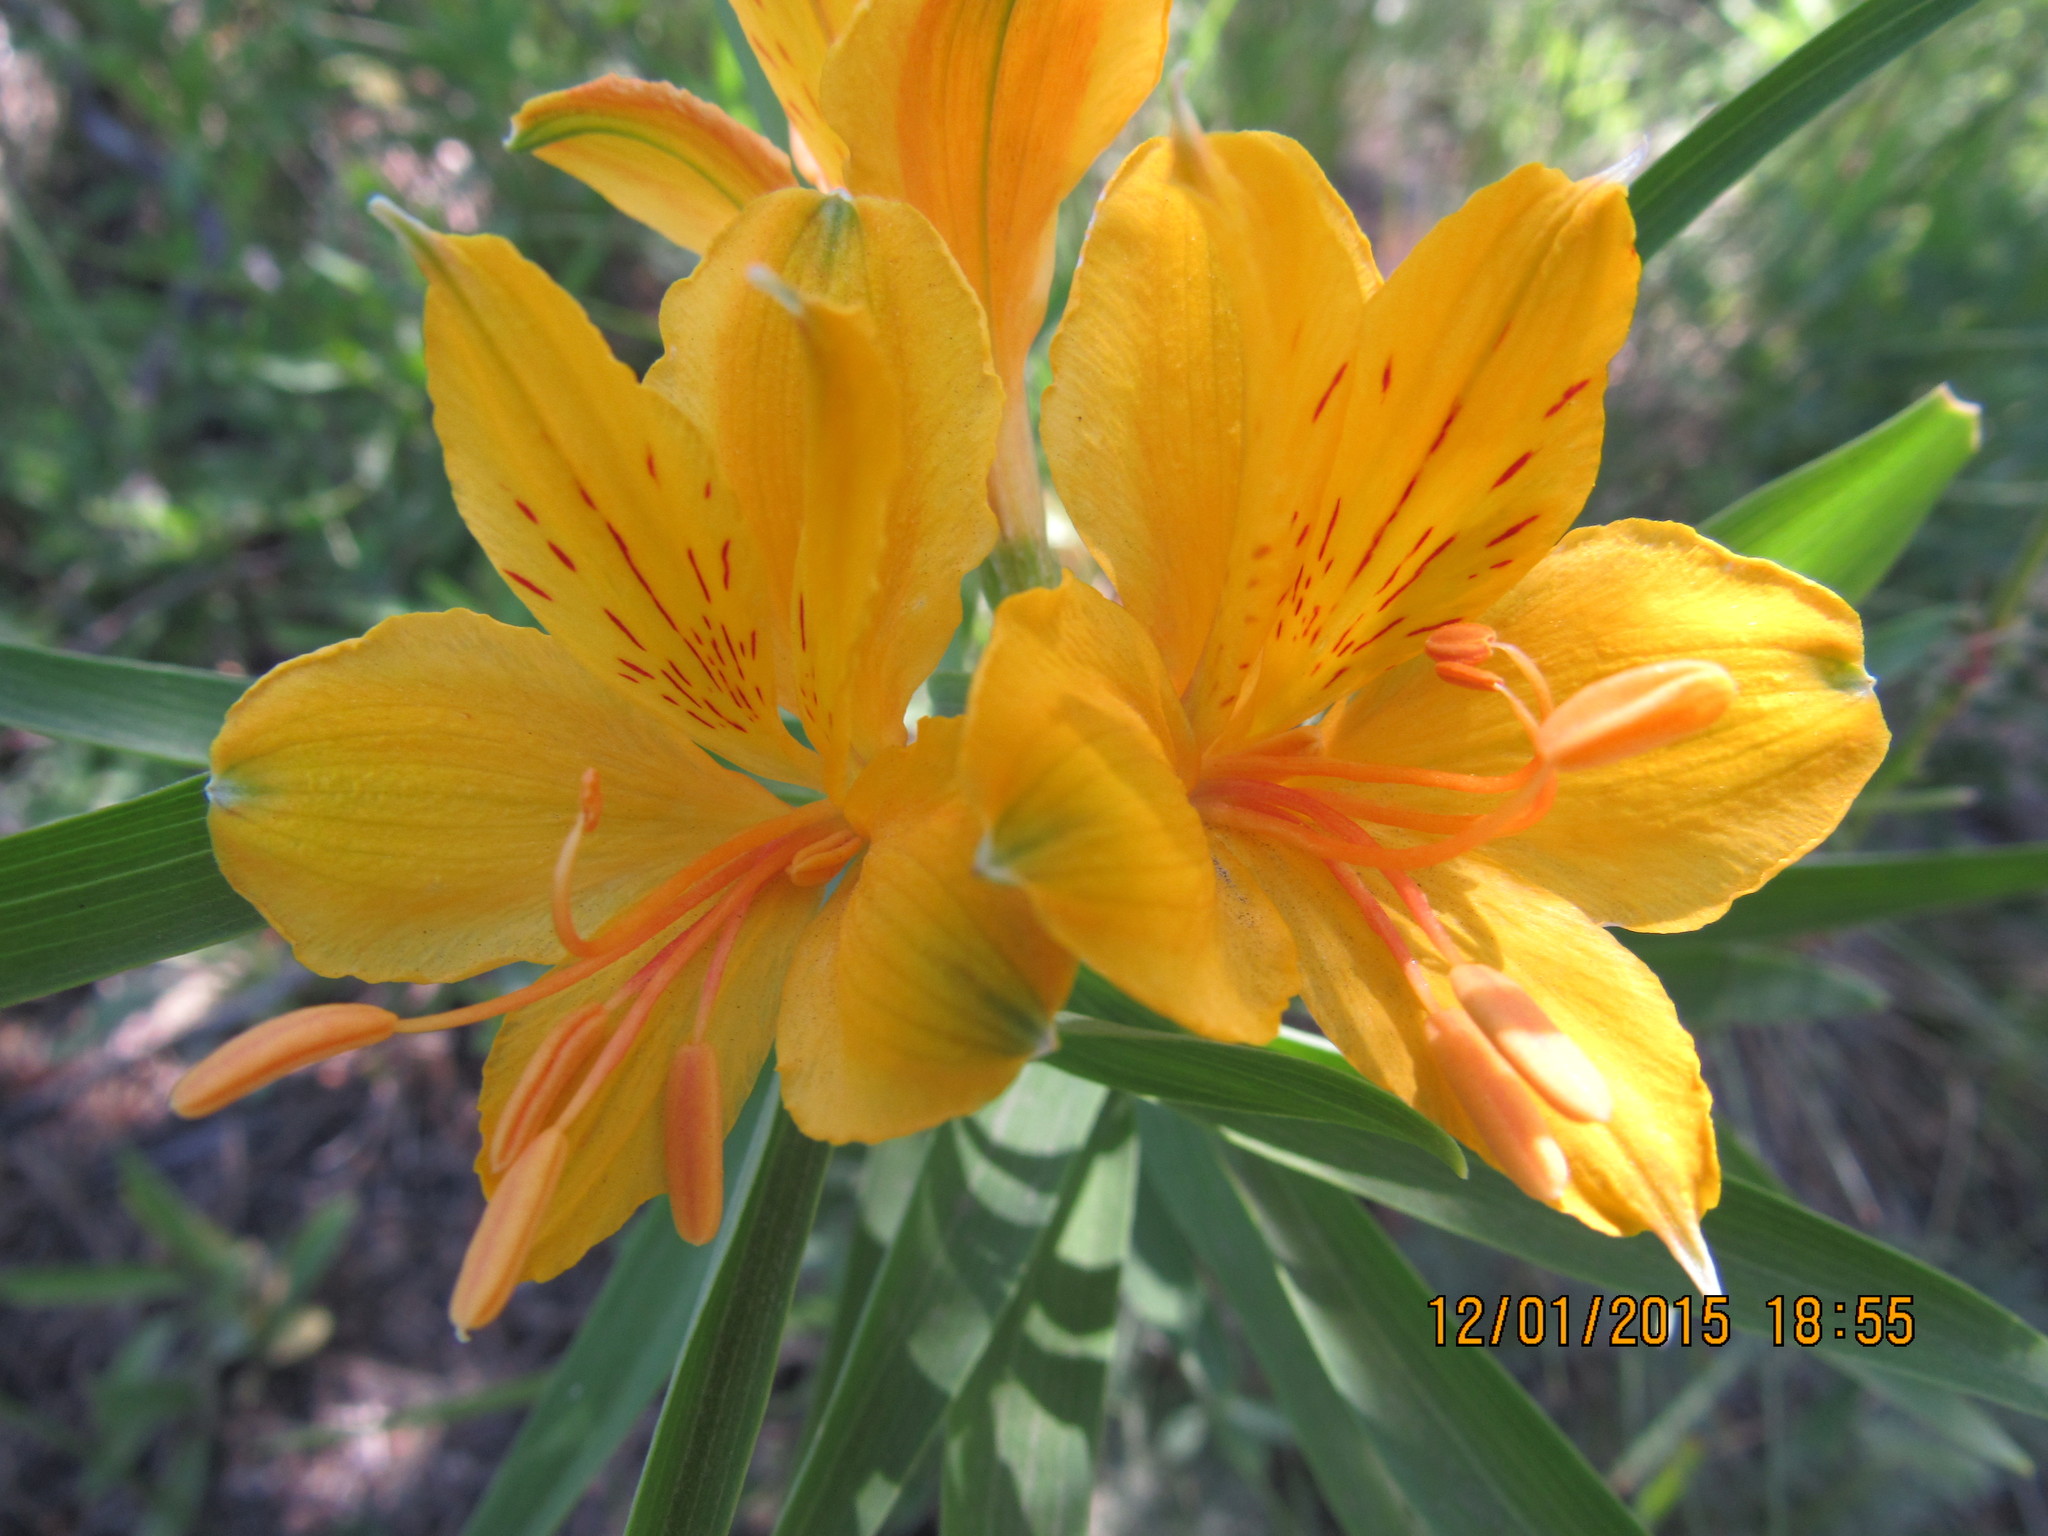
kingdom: Plantae
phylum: Tracheophyta
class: Liliopsida
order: Liliales
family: Alstroemeriaceae
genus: Alstroemeria
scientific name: Alstroemeria aurea
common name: Peruvian lily
